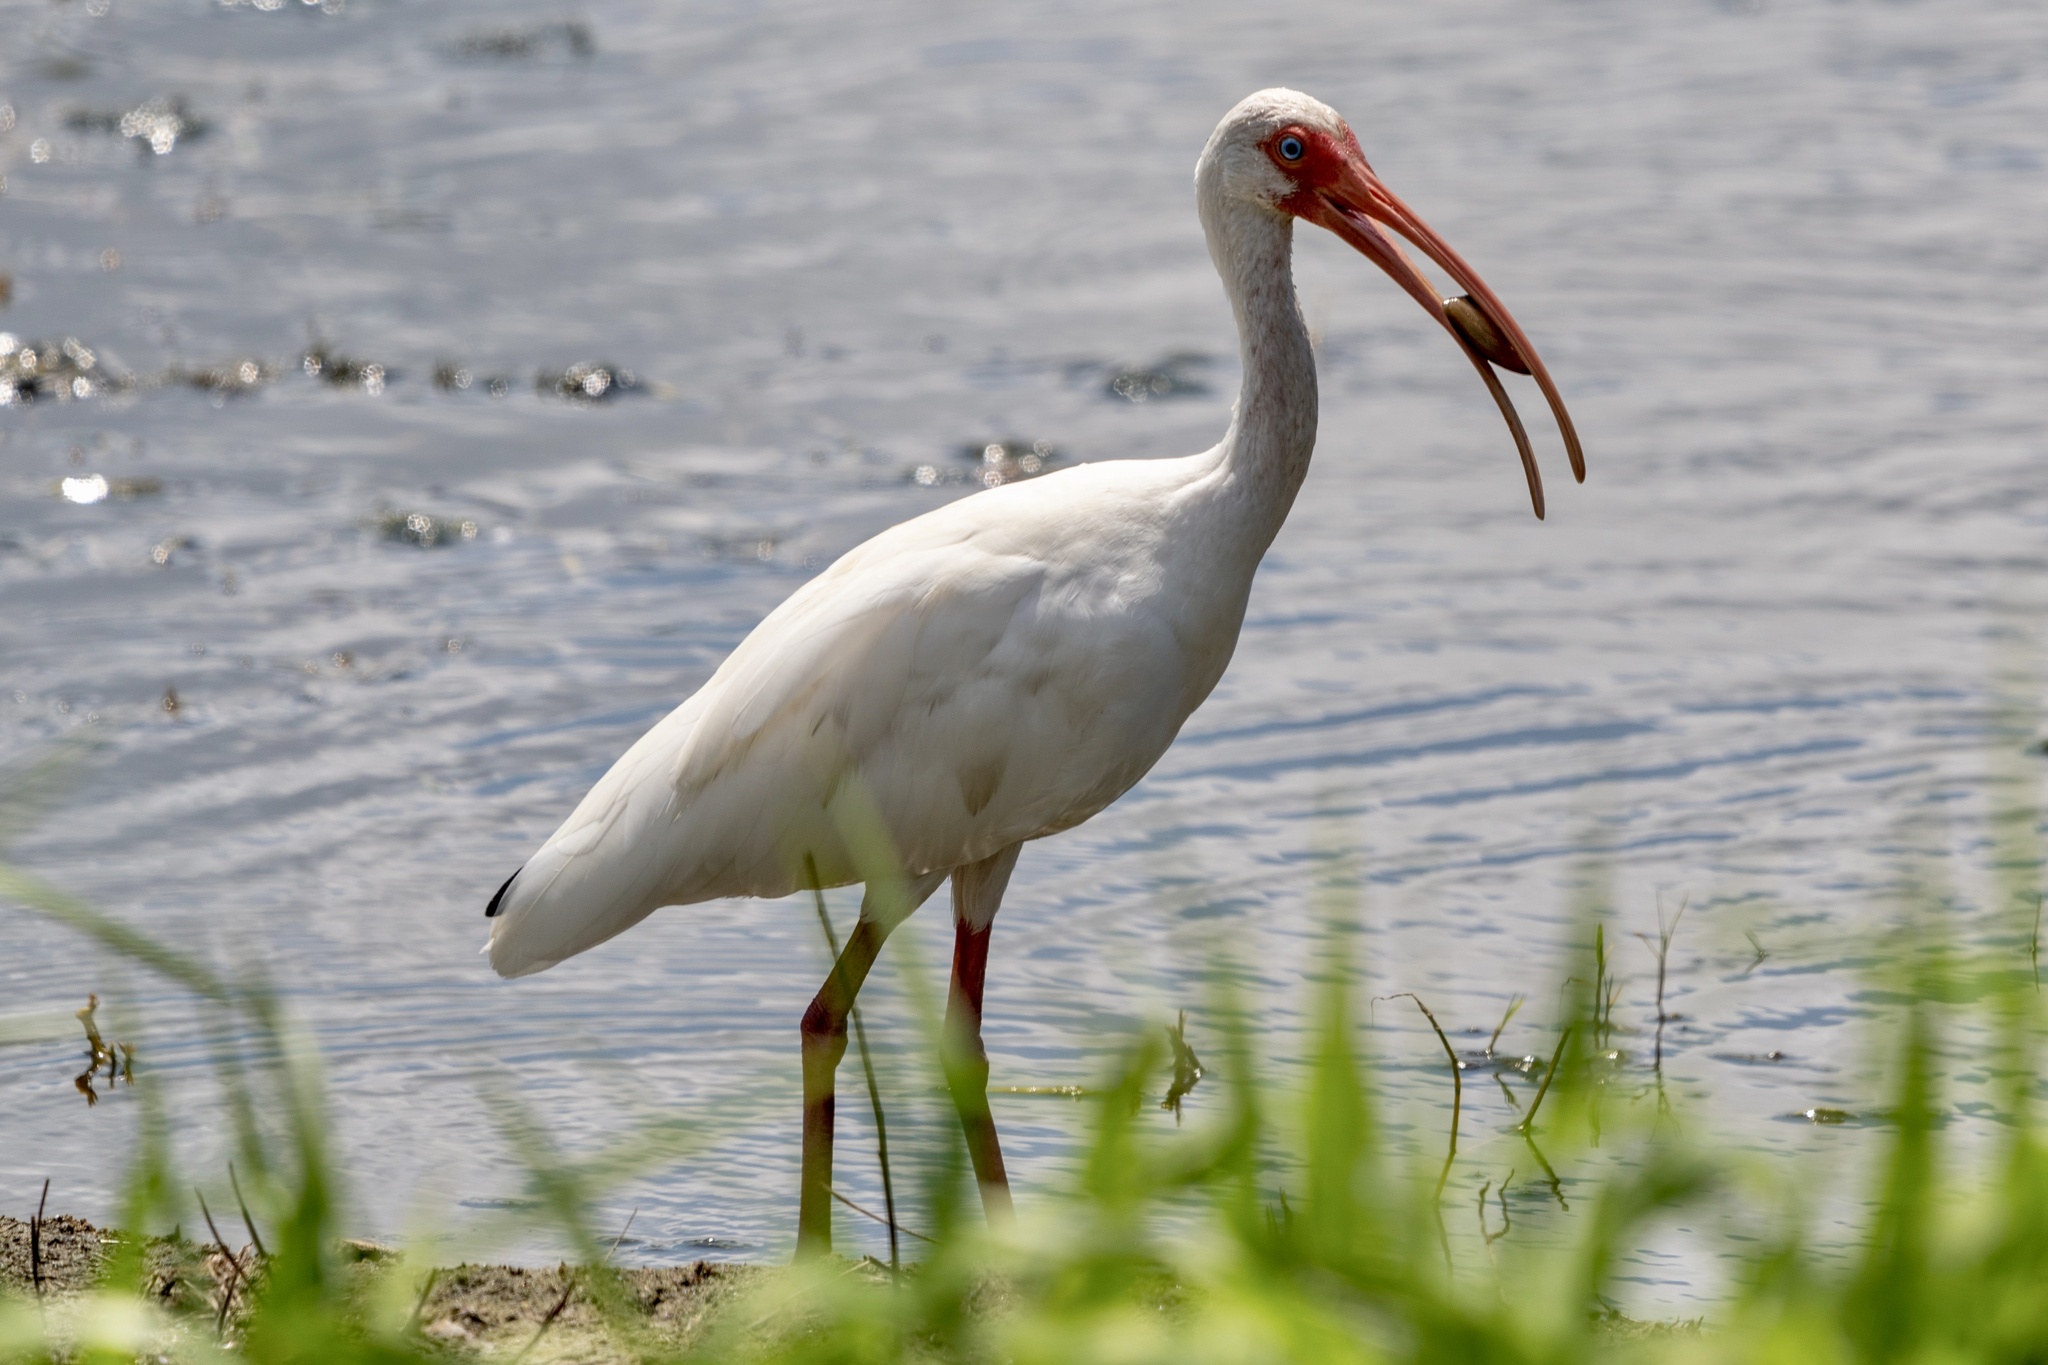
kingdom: Animalia
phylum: Chordata
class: Aves
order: Pelecaniformes
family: Threskiornithidae
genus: Eudocimus
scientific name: Eudocimus albus
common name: White ibis
